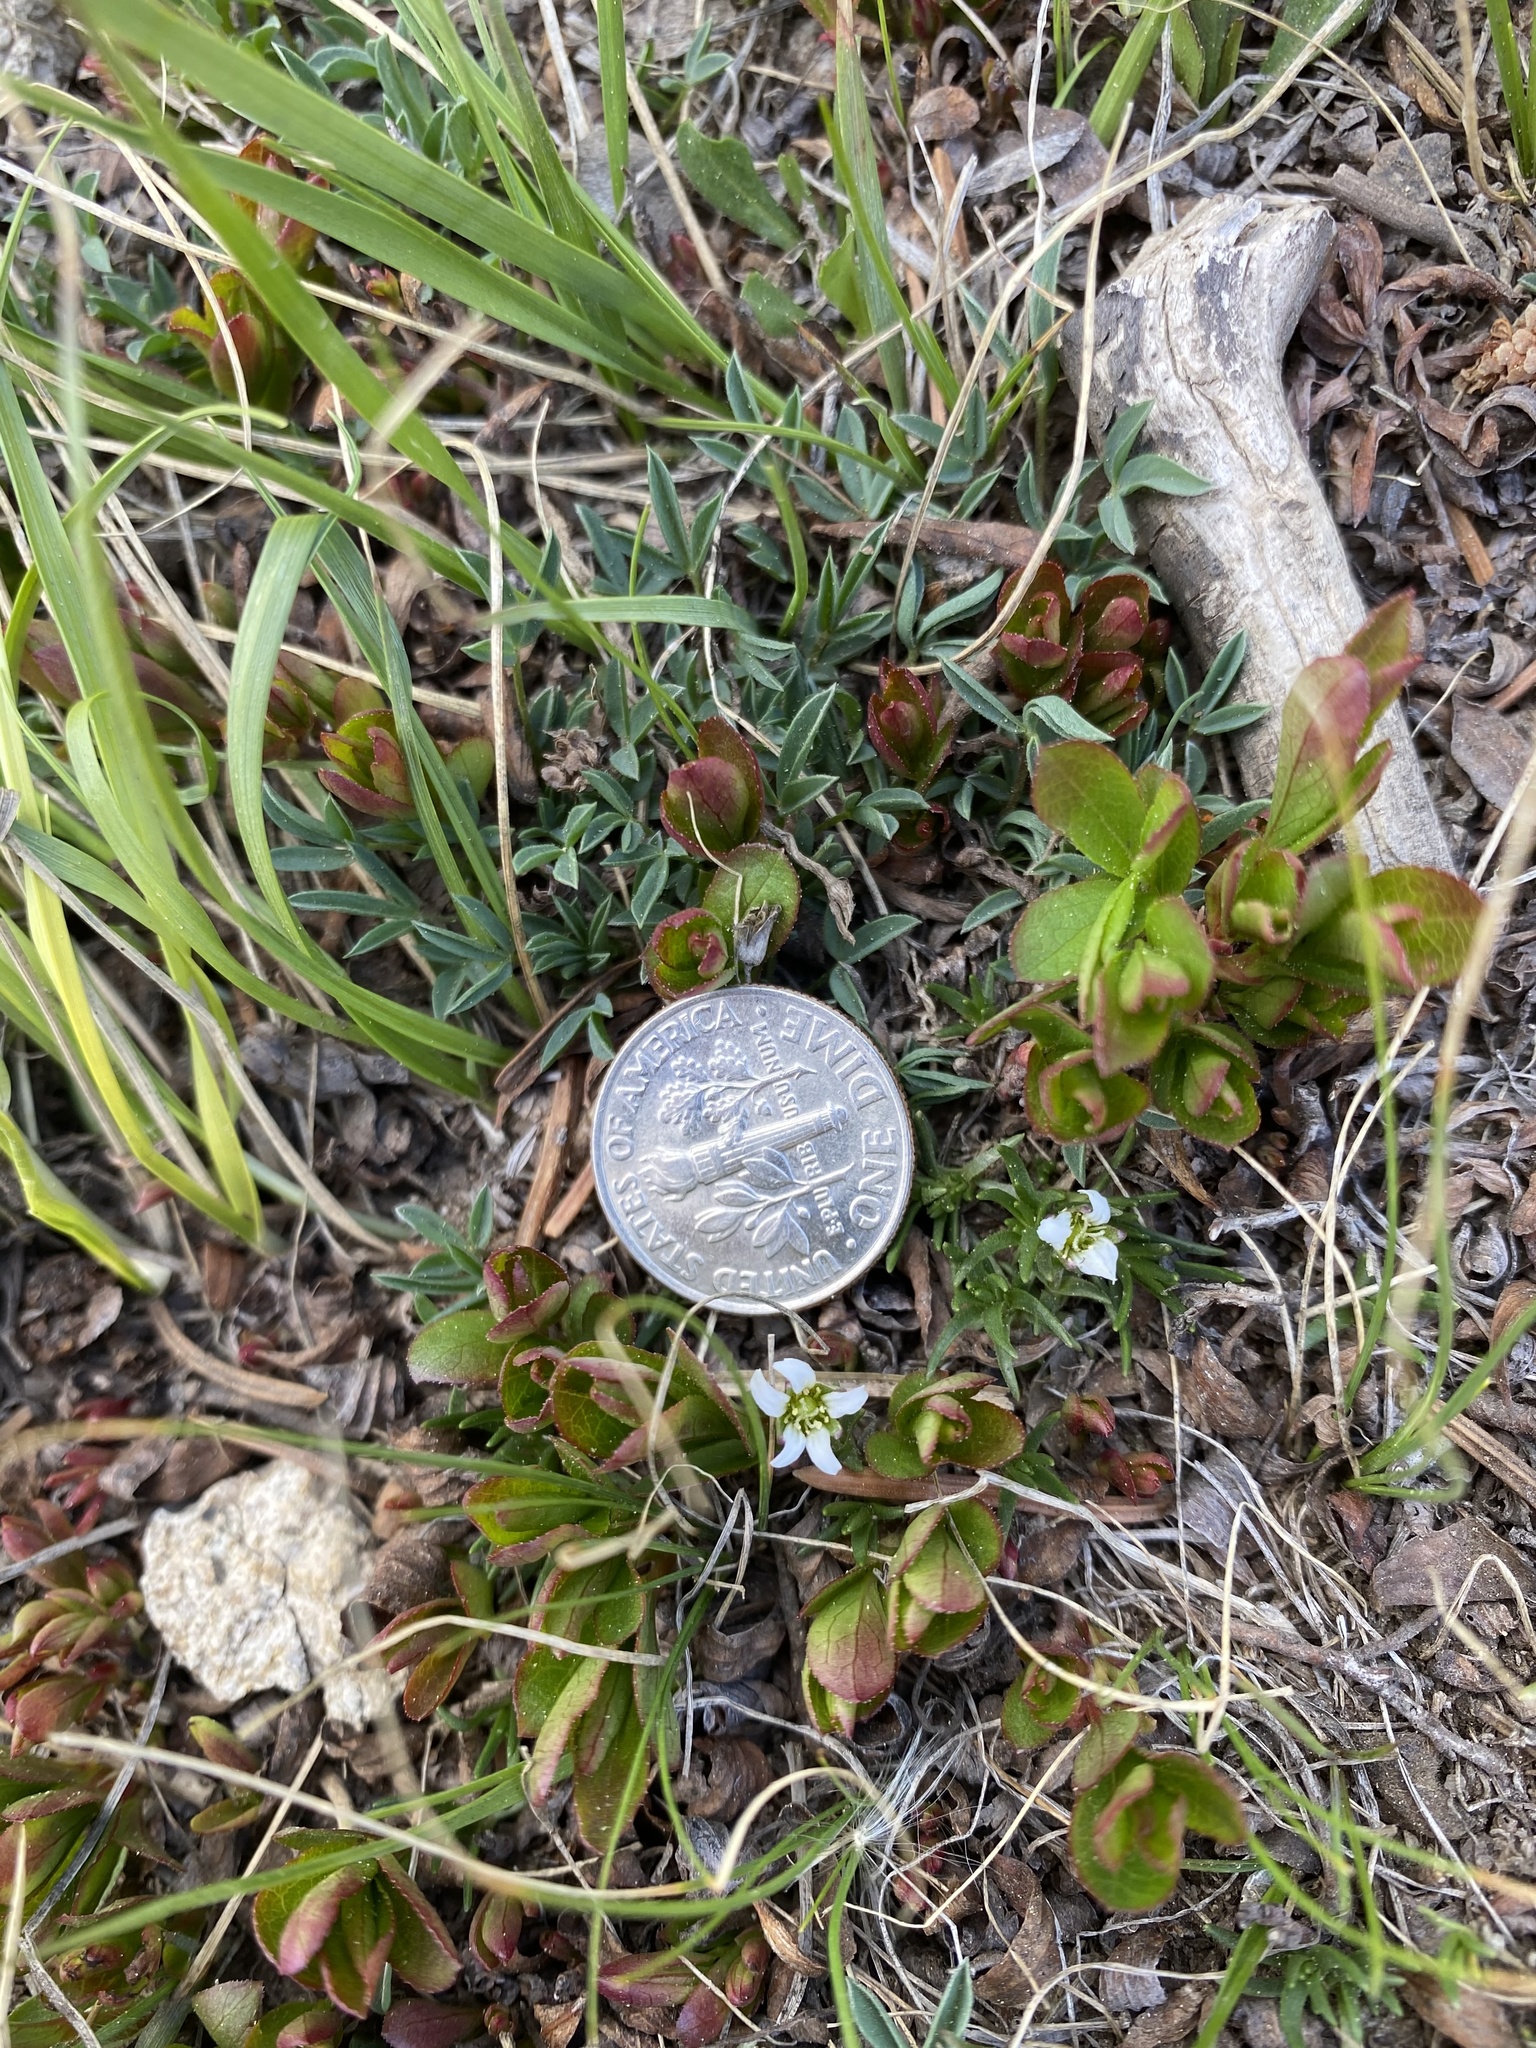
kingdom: Plantae
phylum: Tracheophyta
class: Magnoliopsida
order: Caryophyllales
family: Caryophyllaceae
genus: Cherleria
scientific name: Cherleria obtusiloba
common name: Alpine stitchwort
